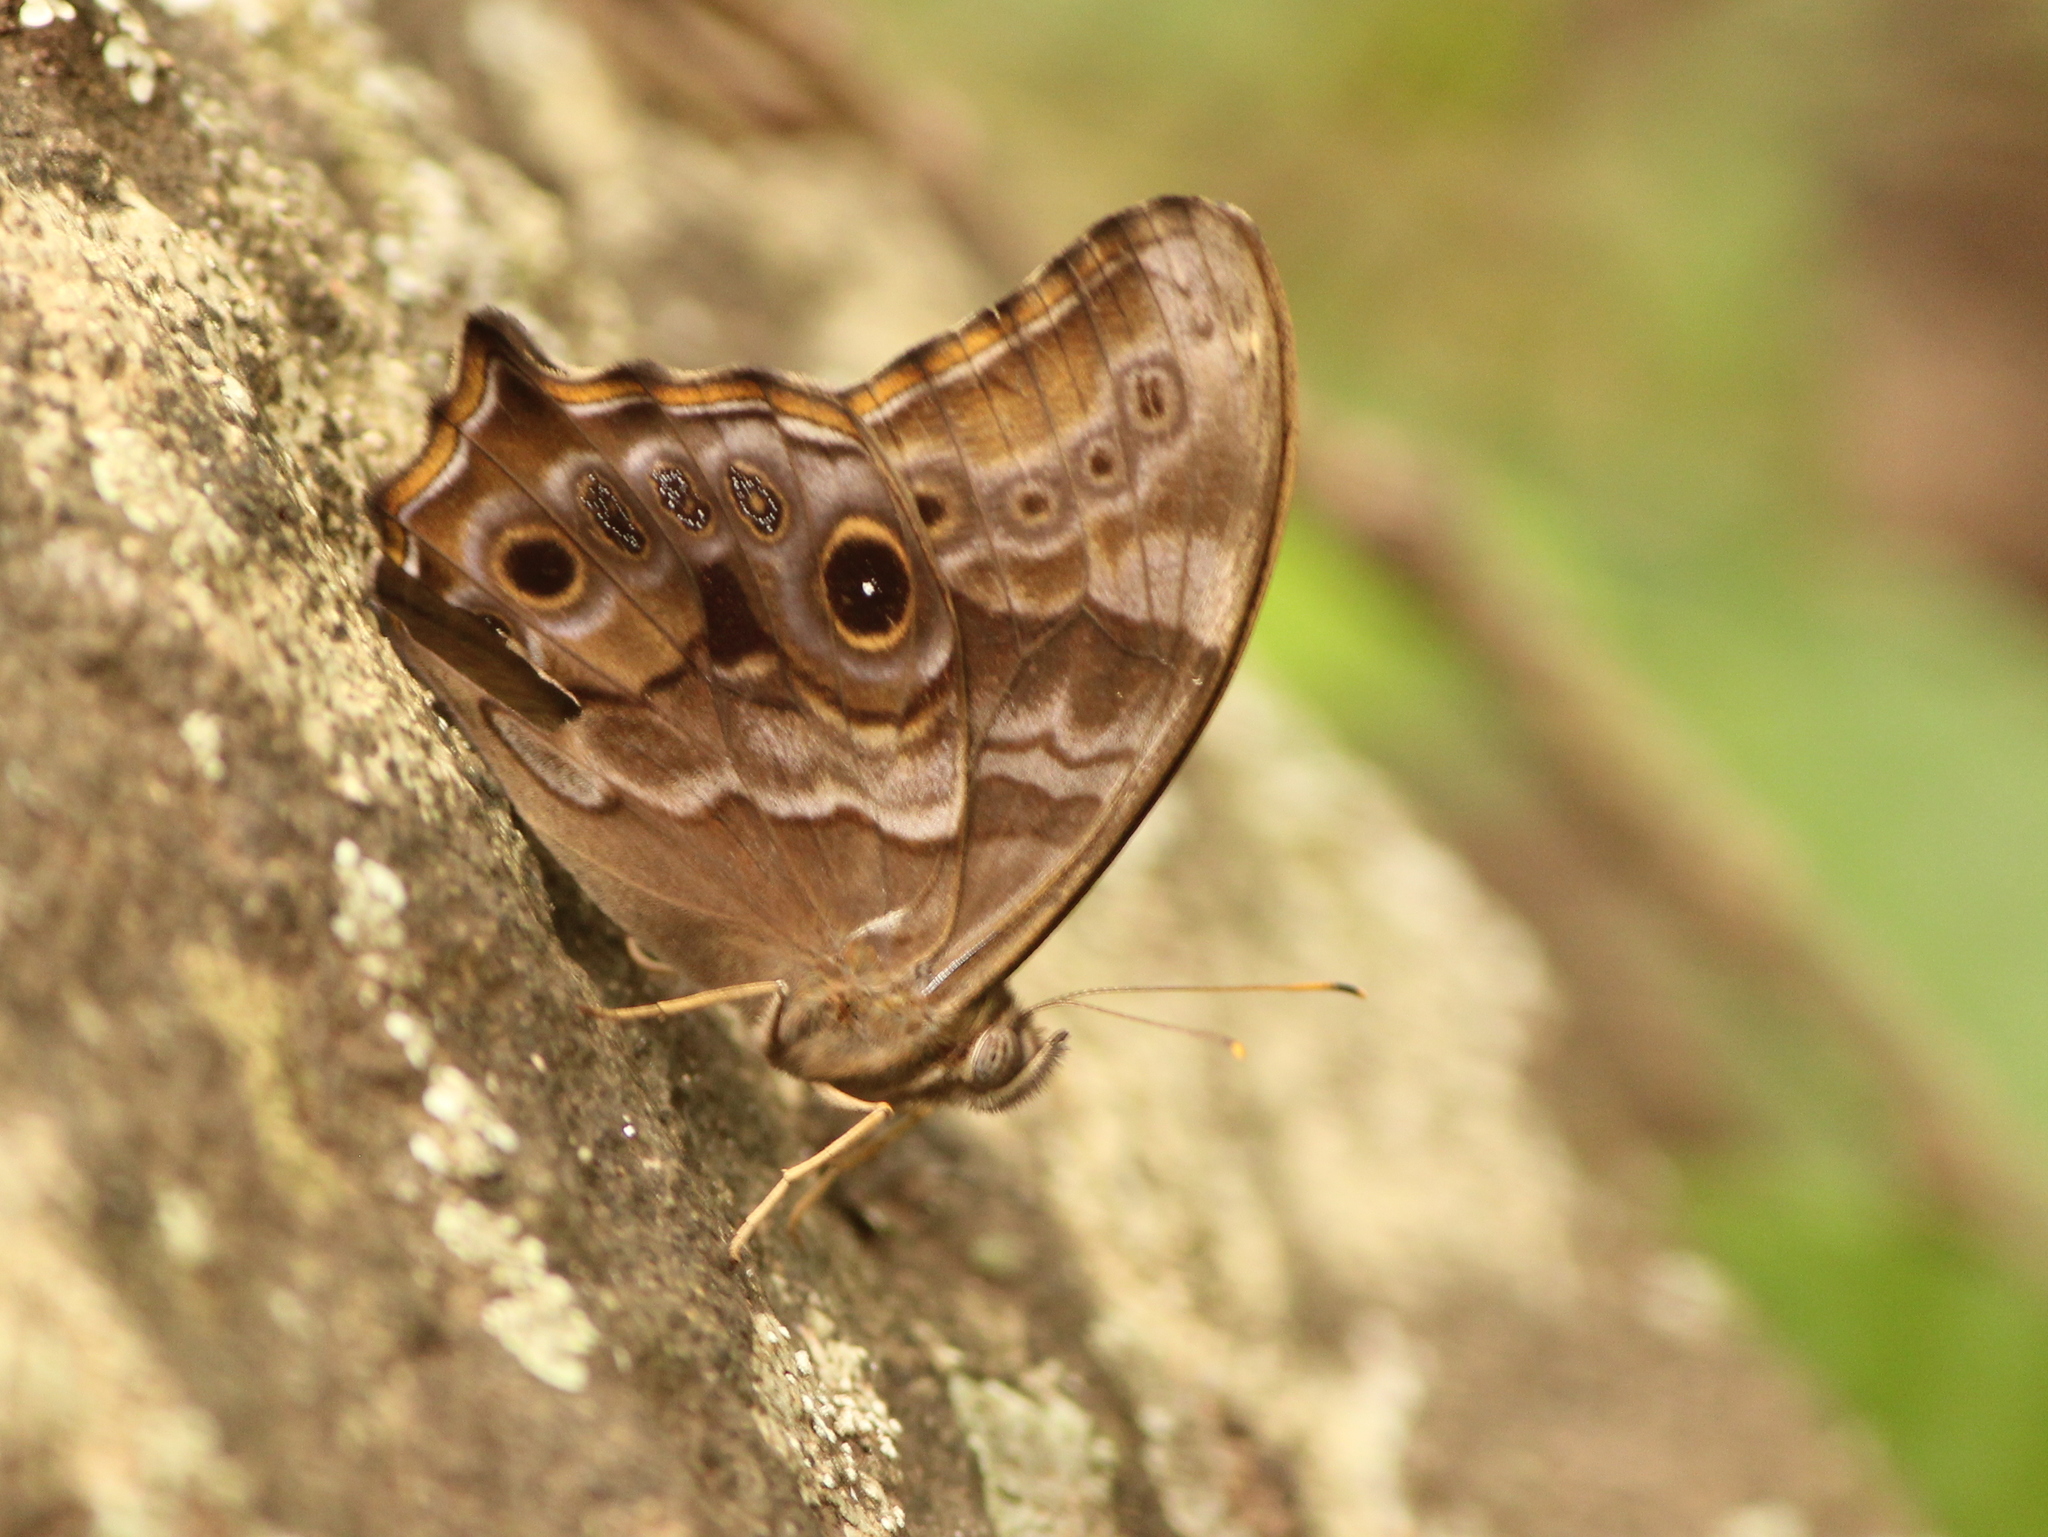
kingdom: Animalia
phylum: Arthropoda
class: Insecta
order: Lepidoptera
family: Nymphalidae
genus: Lethe
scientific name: Lethe rohria
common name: Common treebrown
